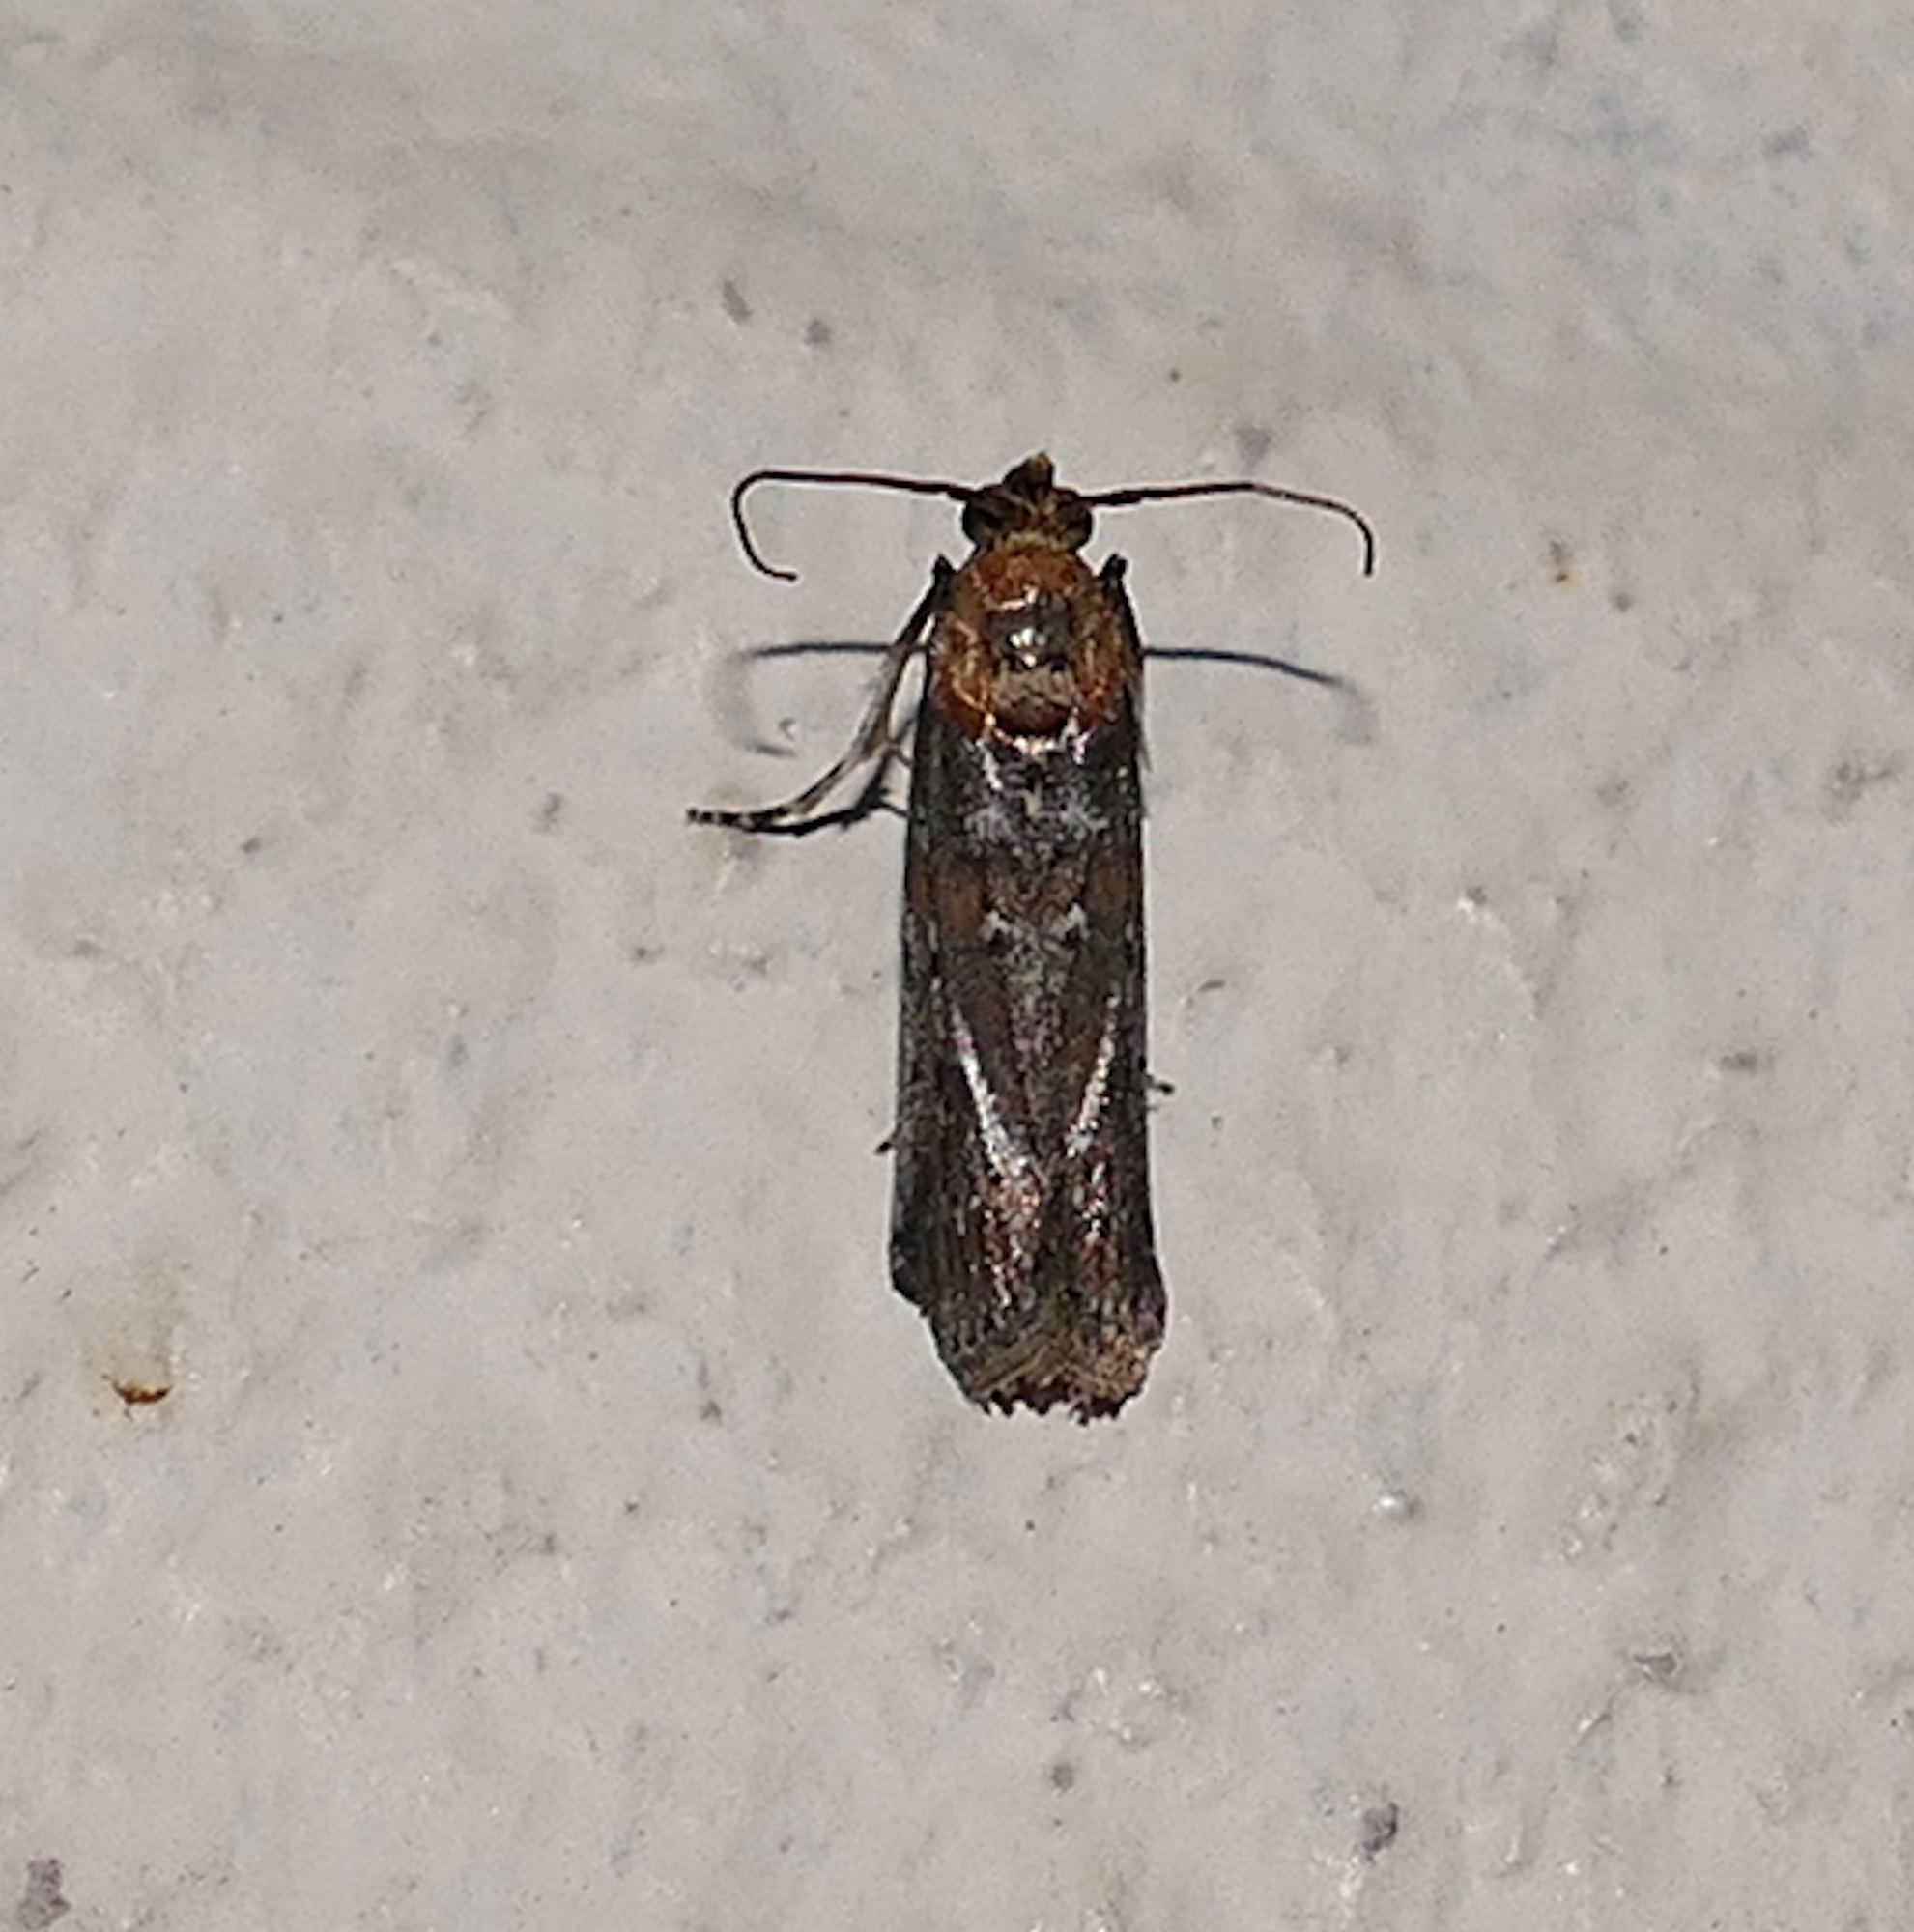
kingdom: Animalia
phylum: Arthropoda
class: Insecta
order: Lepidoptera
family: Pyralidae
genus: Adelphia
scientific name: Adelphia petrella
